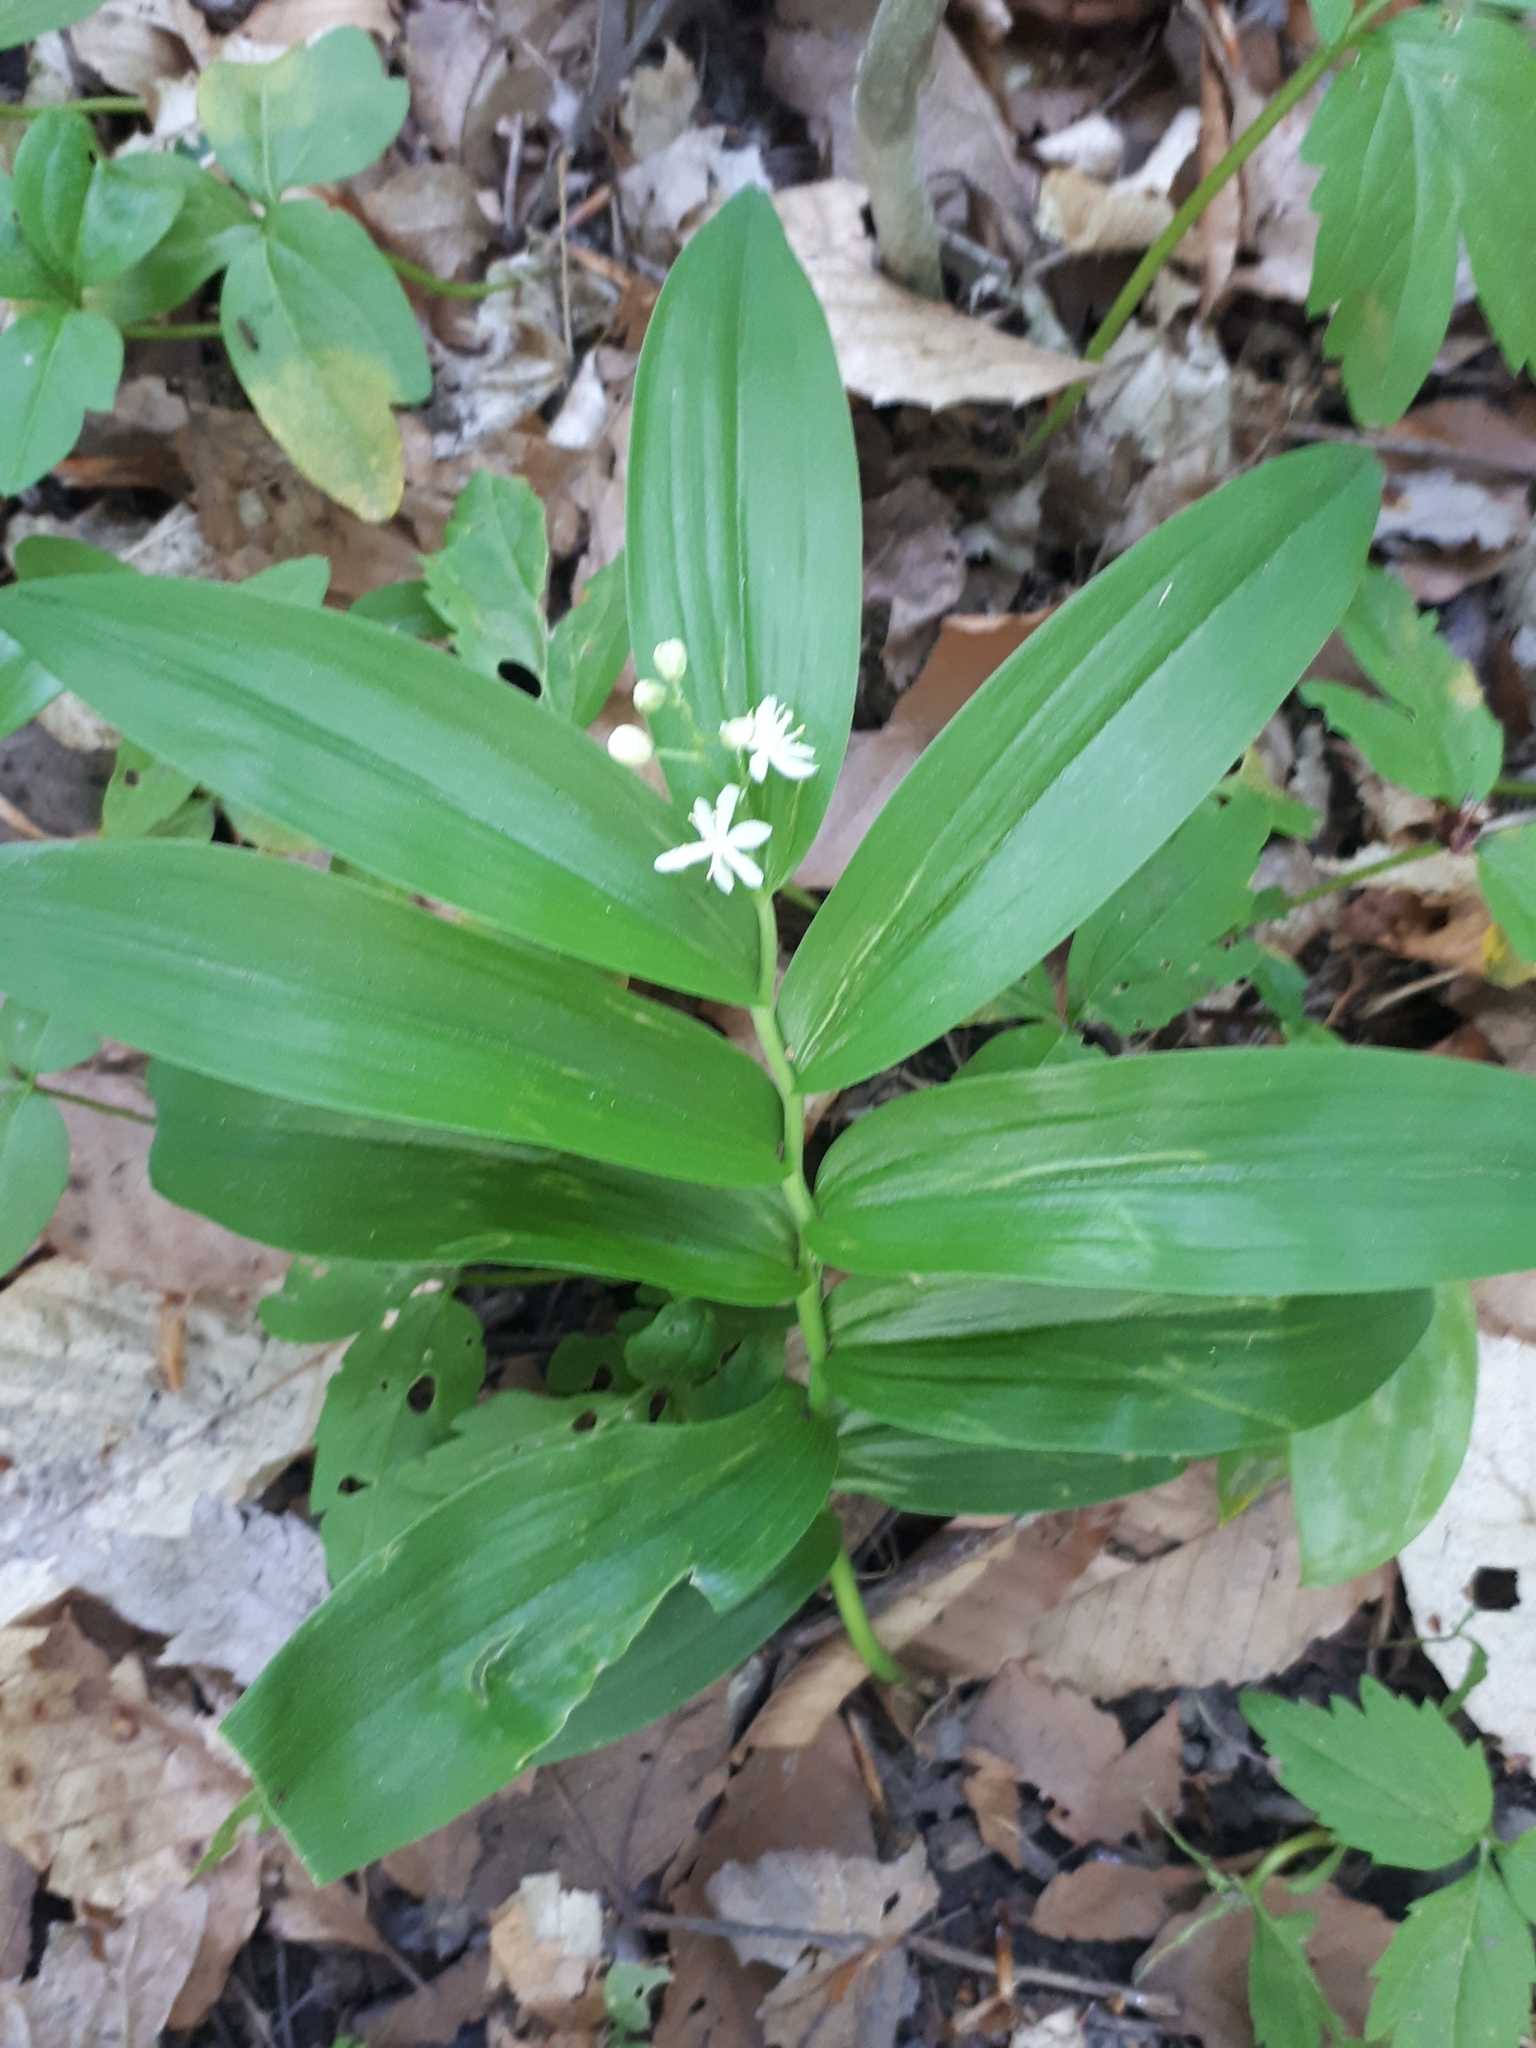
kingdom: Plantae
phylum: Tracheophyta
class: Liliopsida
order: Asparagales
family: Asparagaceae
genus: Maianthemum
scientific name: Maianthemum stellatum
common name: Little false solomon's seal
